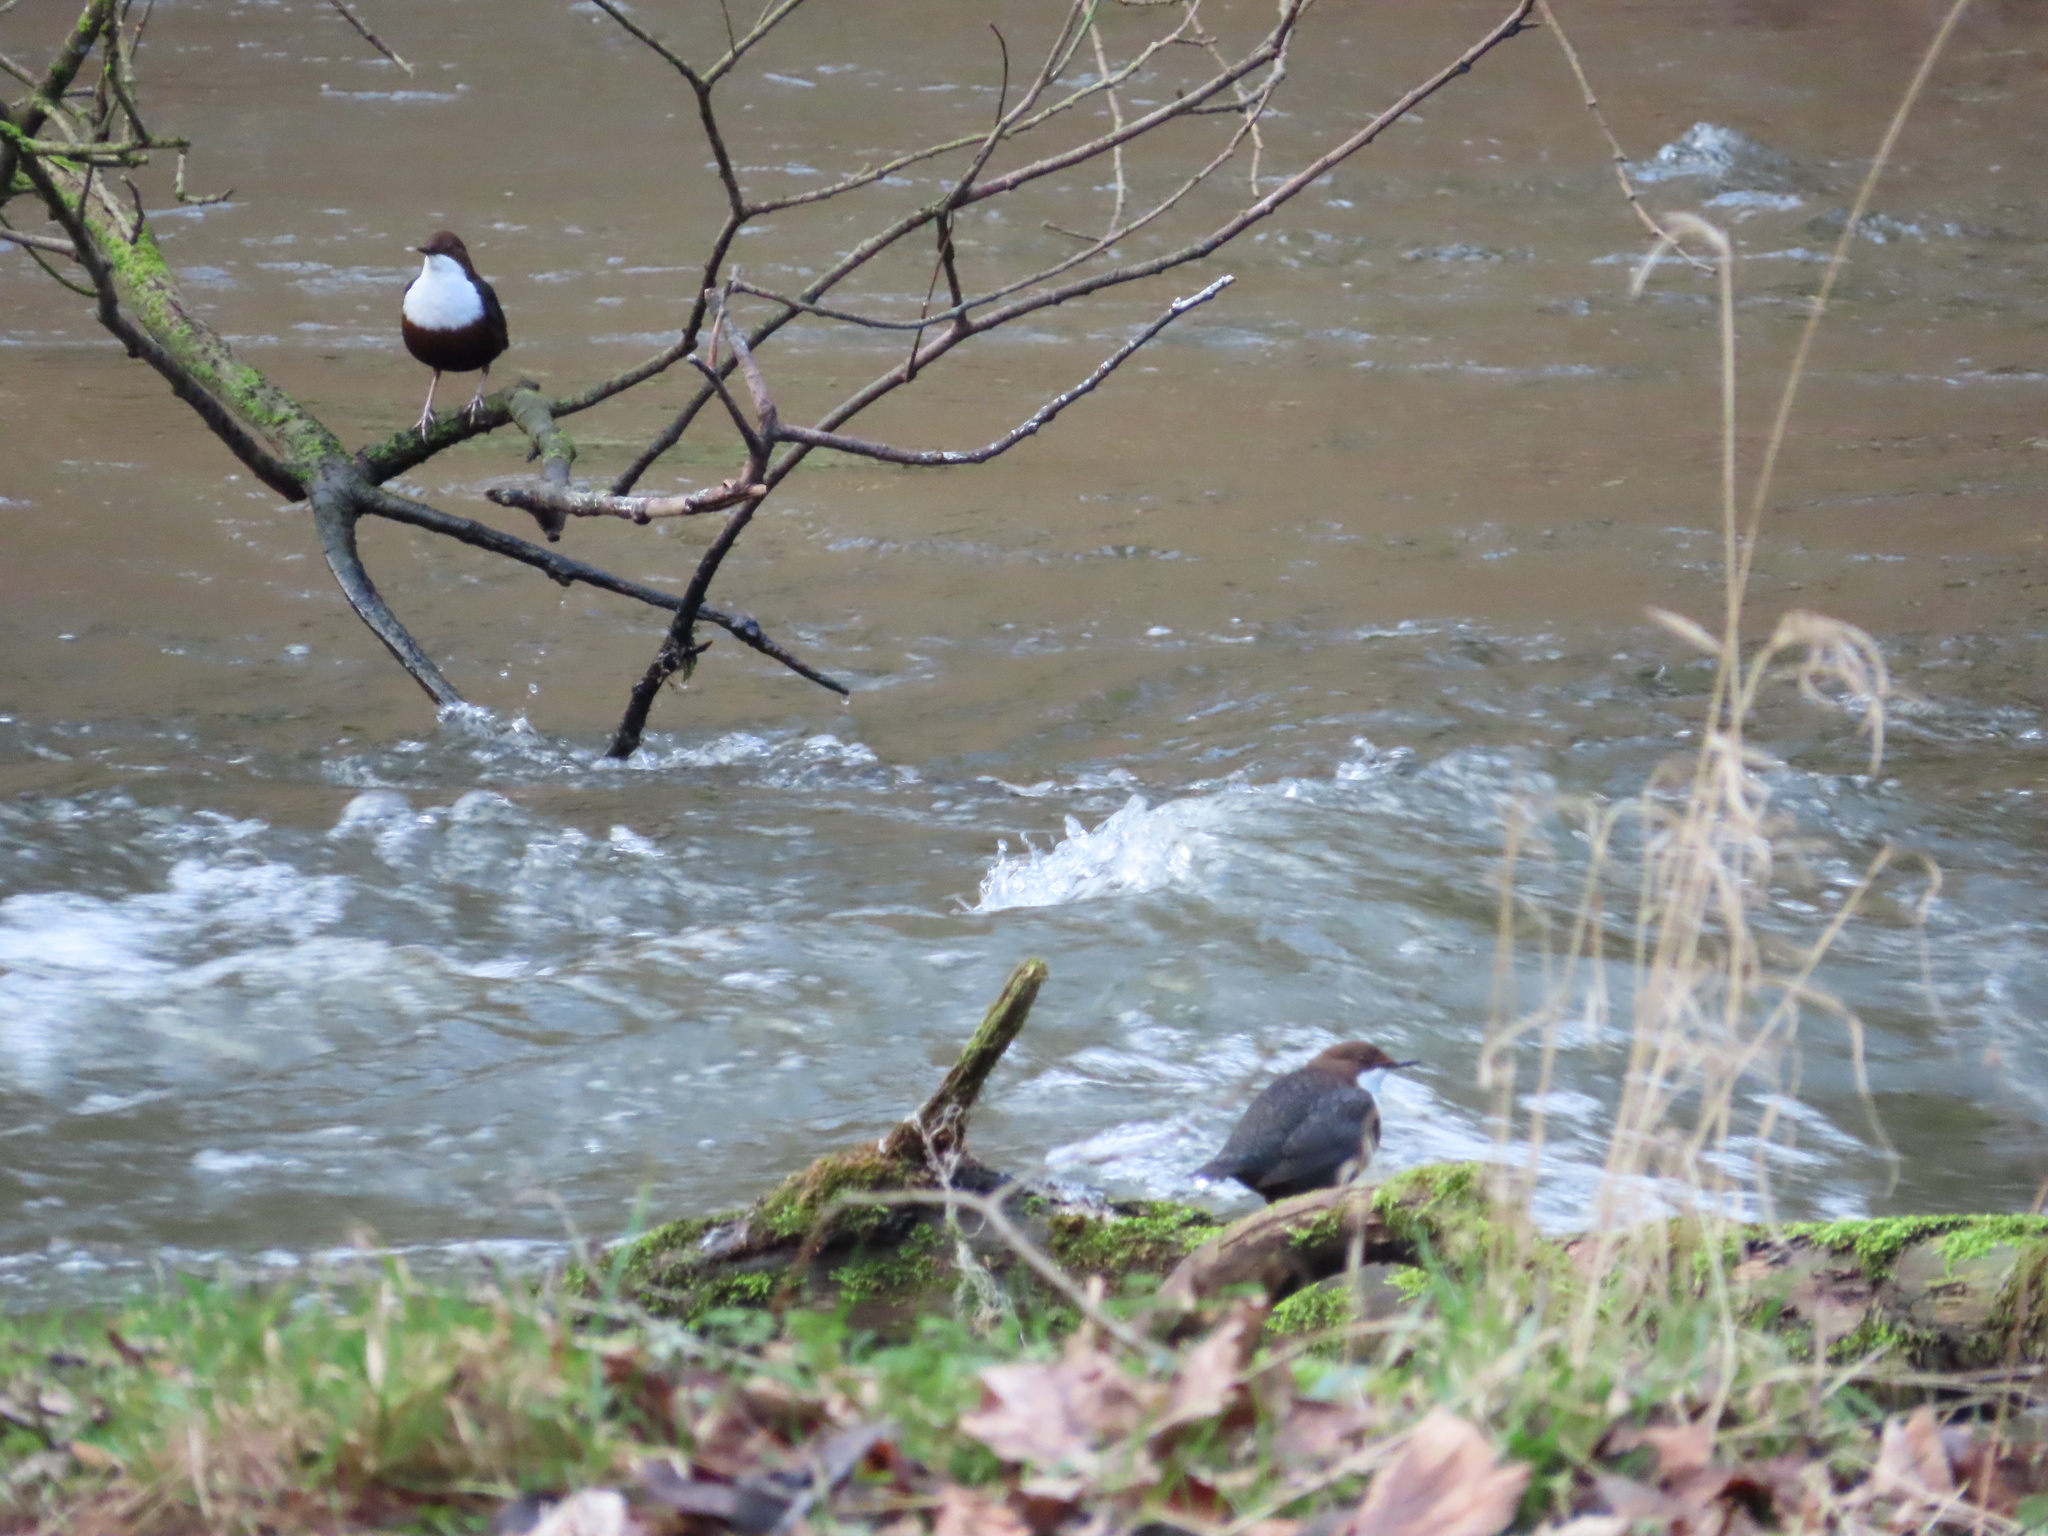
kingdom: Animalia
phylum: Chordata
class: Aves
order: Passeriformes
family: Cinclidae
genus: Cinclus
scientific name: Cinclus cinclus
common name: White-throated dipper
